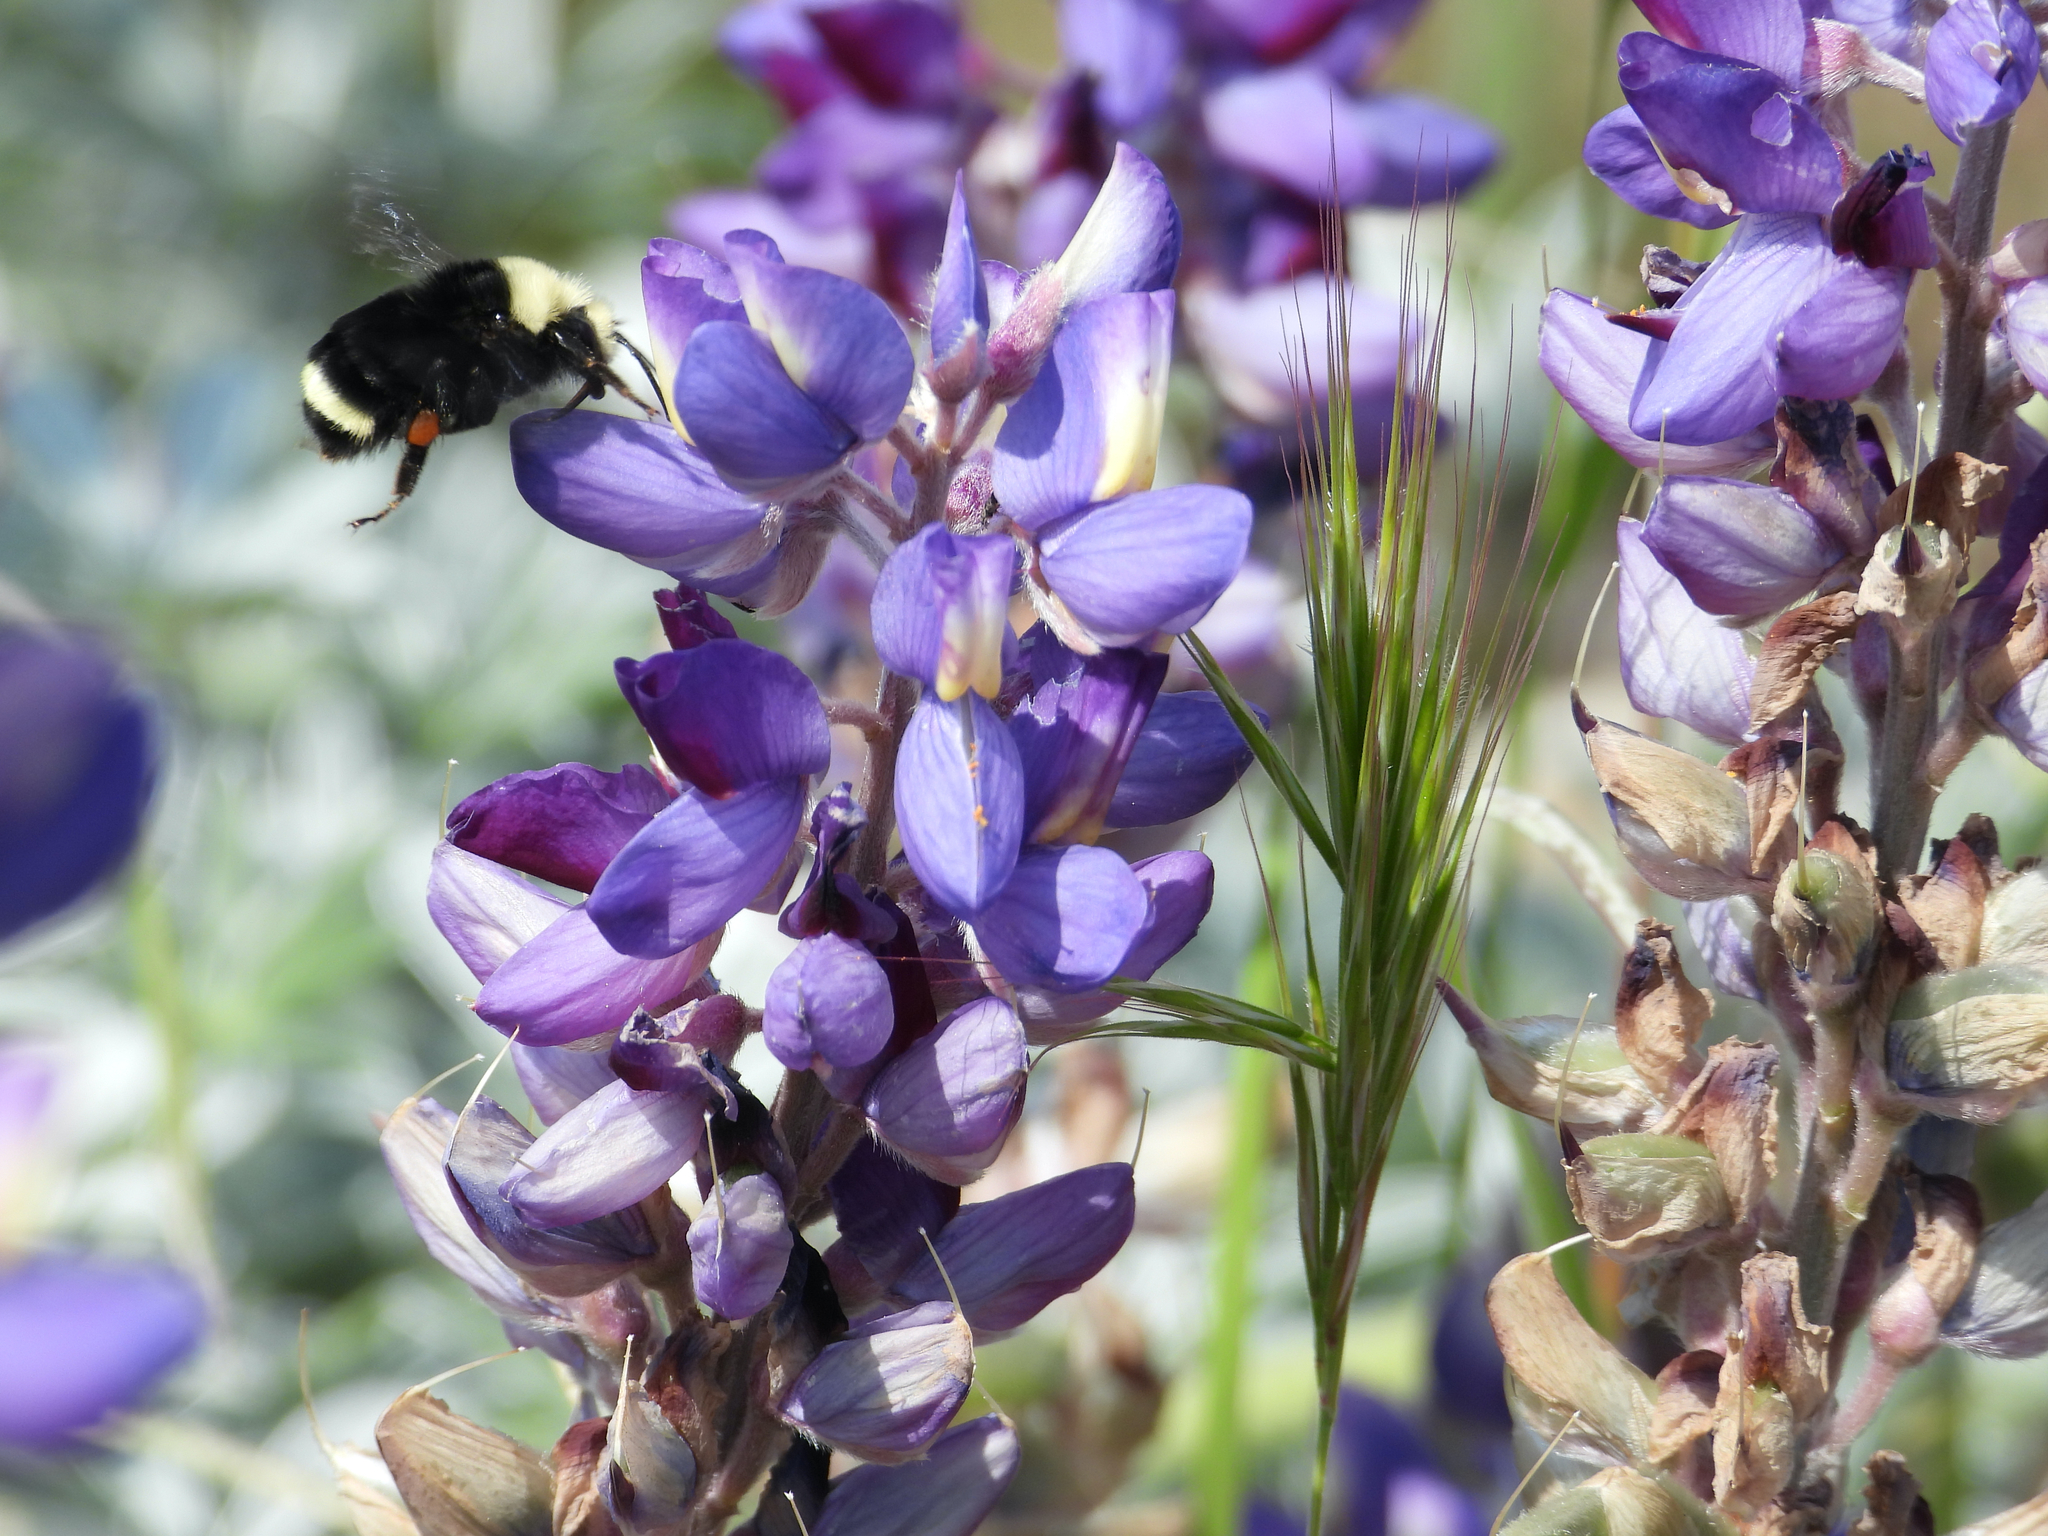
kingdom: Animalia
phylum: Arthropoda
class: Insecta
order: Hymenoptera
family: Apidae
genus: Bombus
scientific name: Bombus vosnesenskii
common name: Vosnesensky bumble bee
